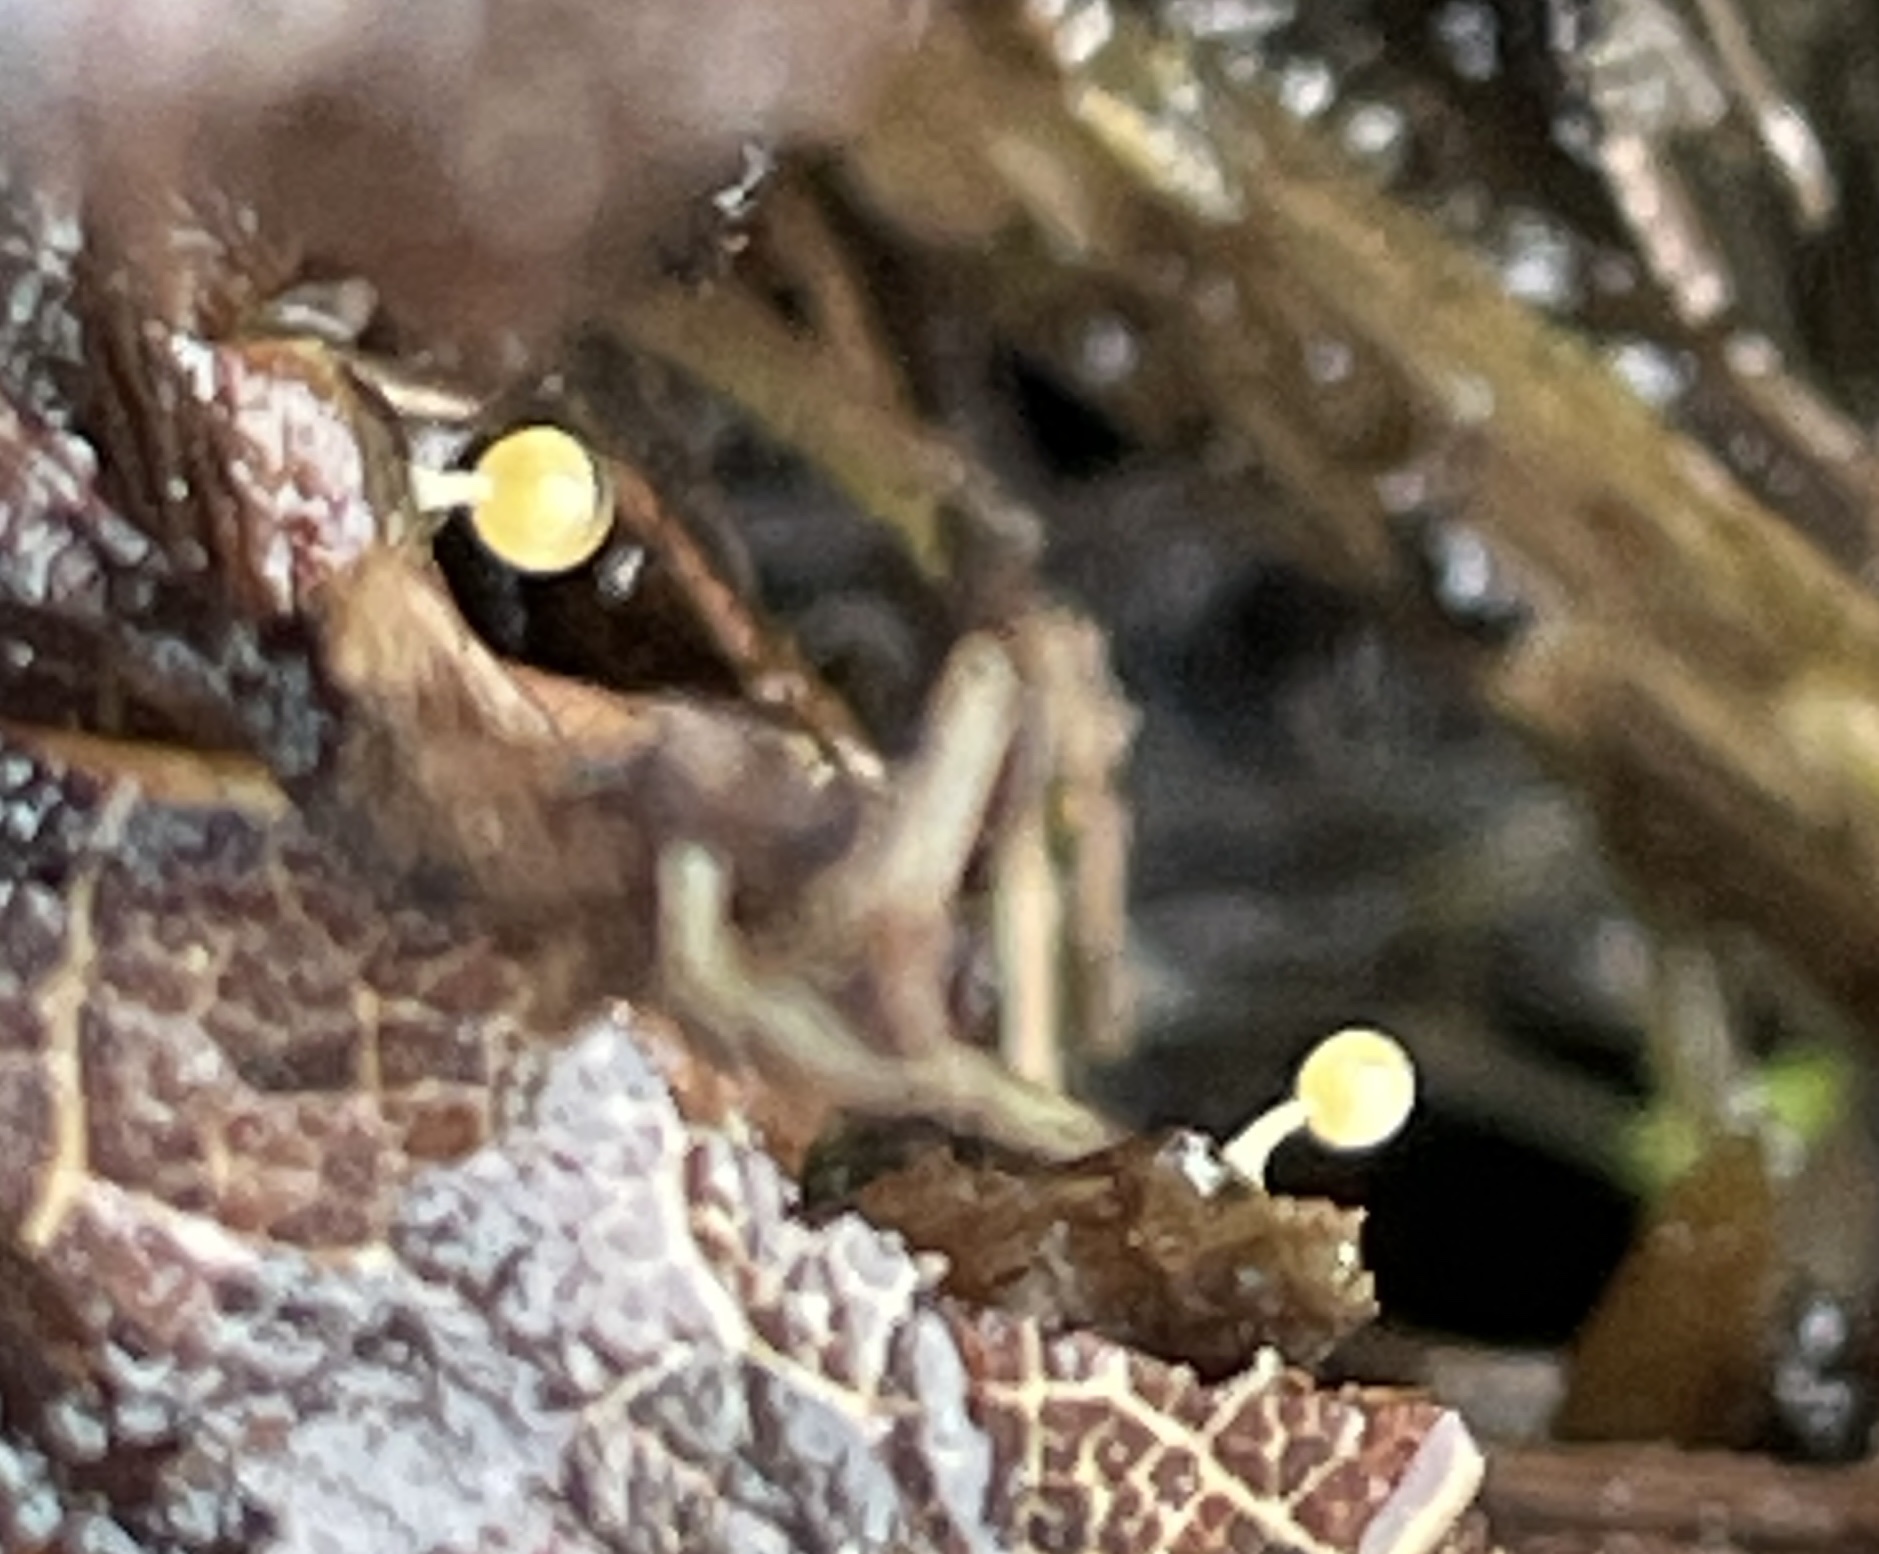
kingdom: Protozoa
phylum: Mycetozoa
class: Myxomycetes
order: Physarales
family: Physaraceae
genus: Physarum
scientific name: Physarum viride
